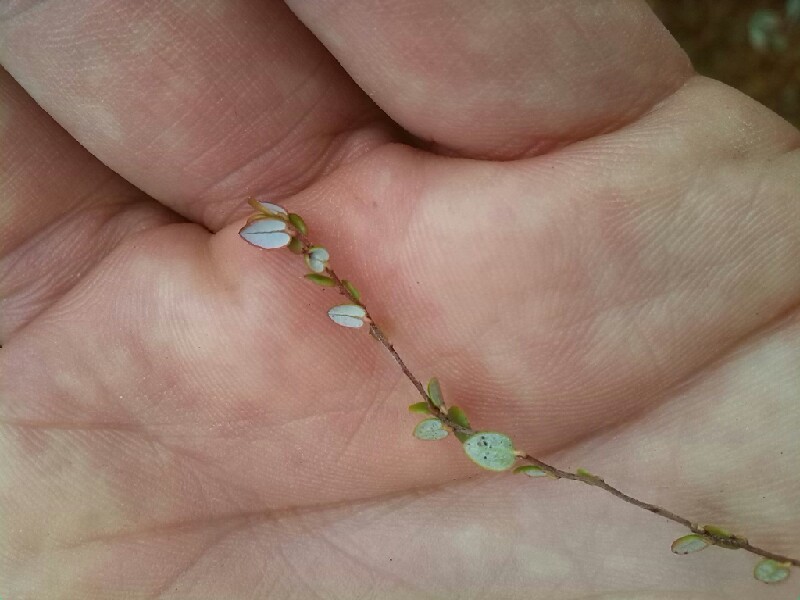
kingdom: Plantae
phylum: Tracheophyta
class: Magnoliopsida
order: Ericales
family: Ericaceae
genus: Vaccinium
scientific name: Vaccinium oxycoccos
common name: Cranberry
